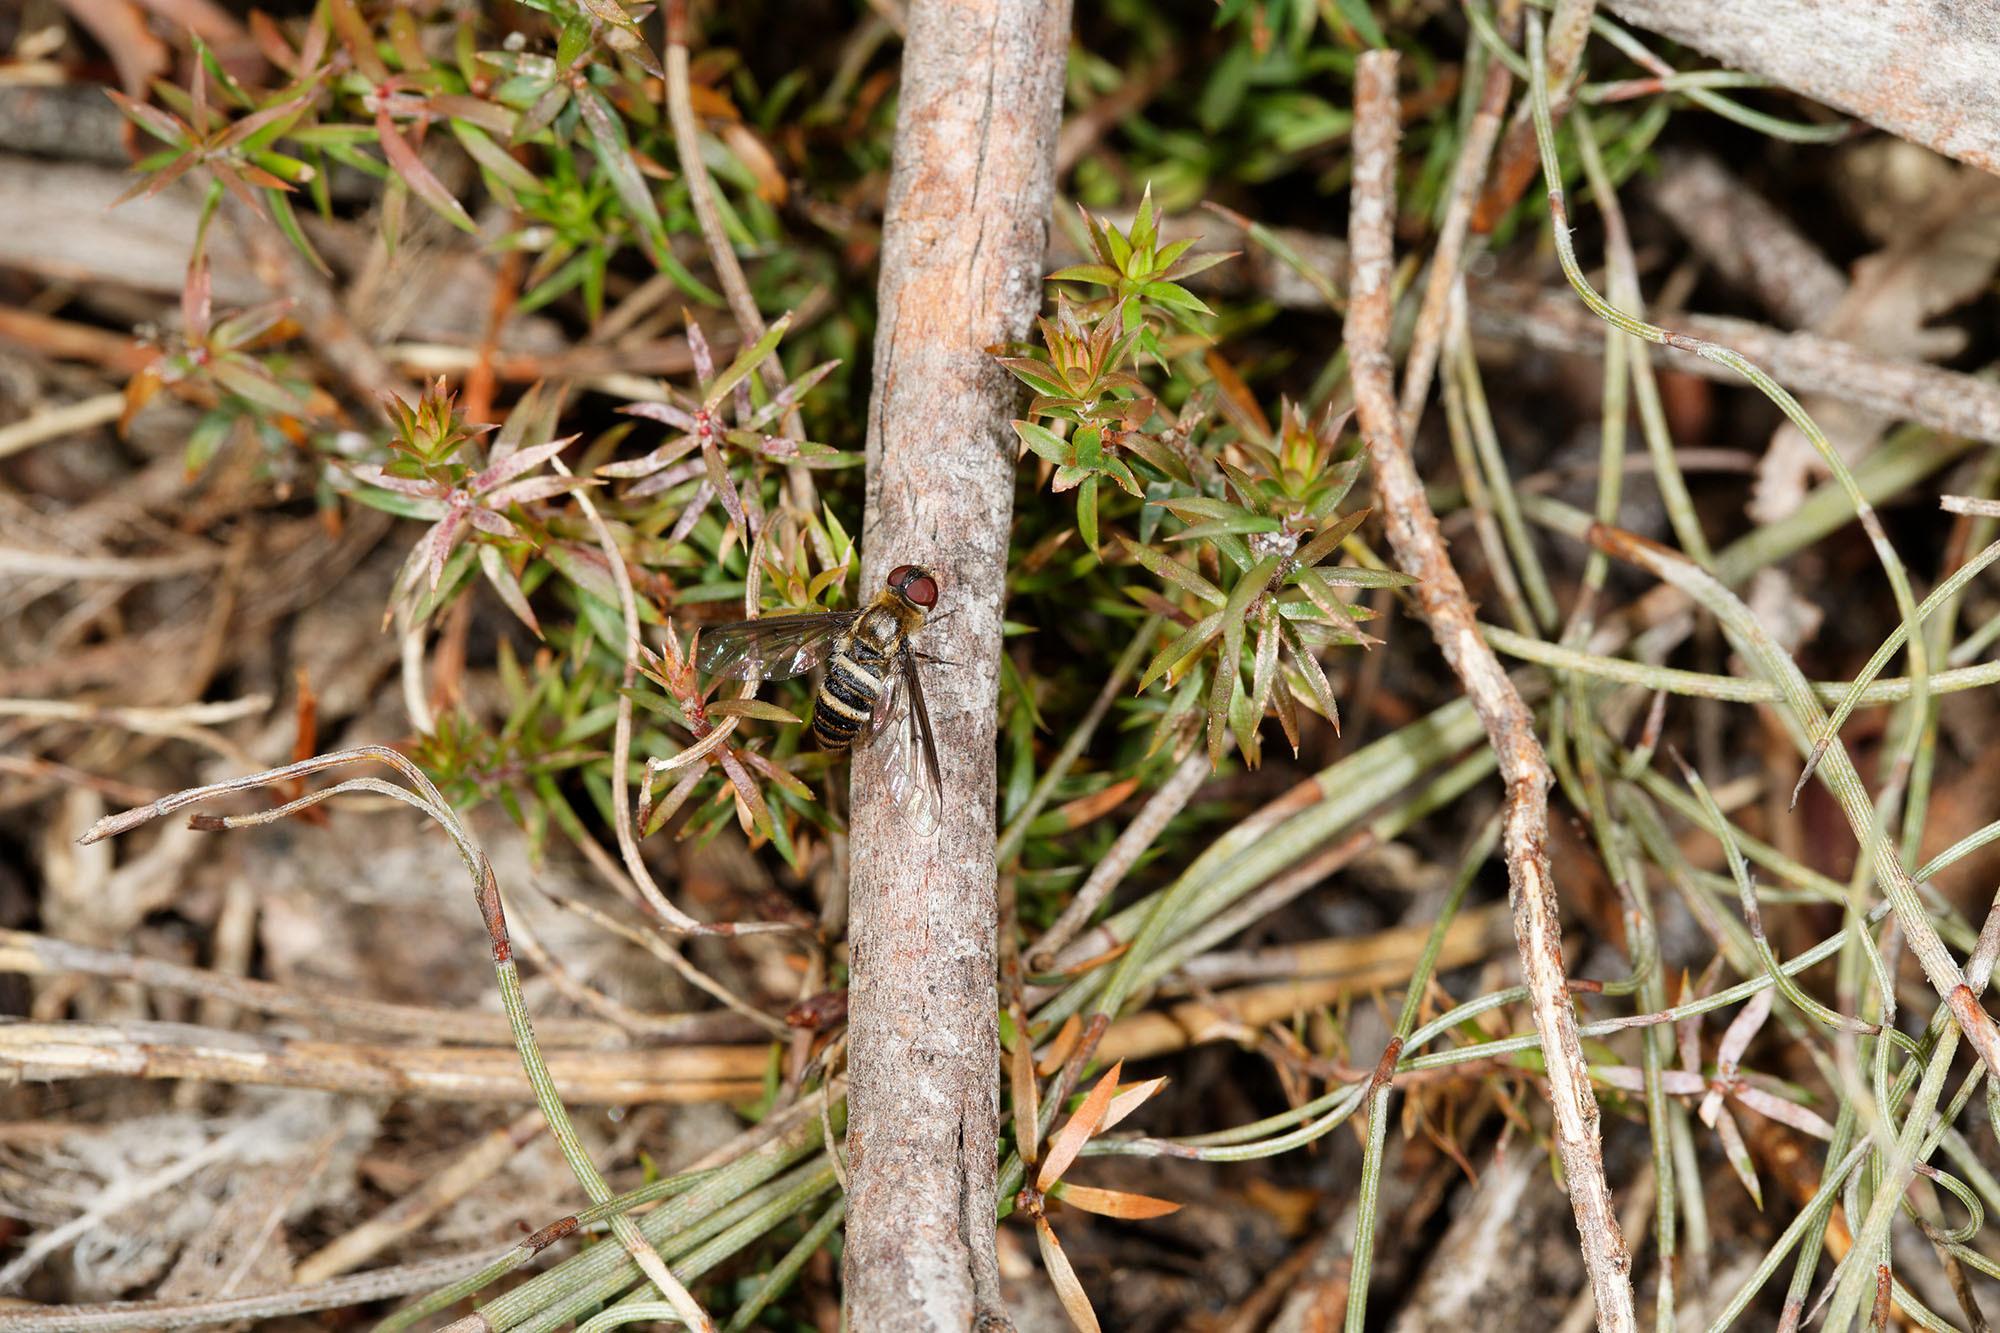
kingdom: Animalia
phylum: Arthropoda
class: Insecta
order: Diptera
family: Bombyliidae
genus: Villa
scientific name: Villa fuscicostata
